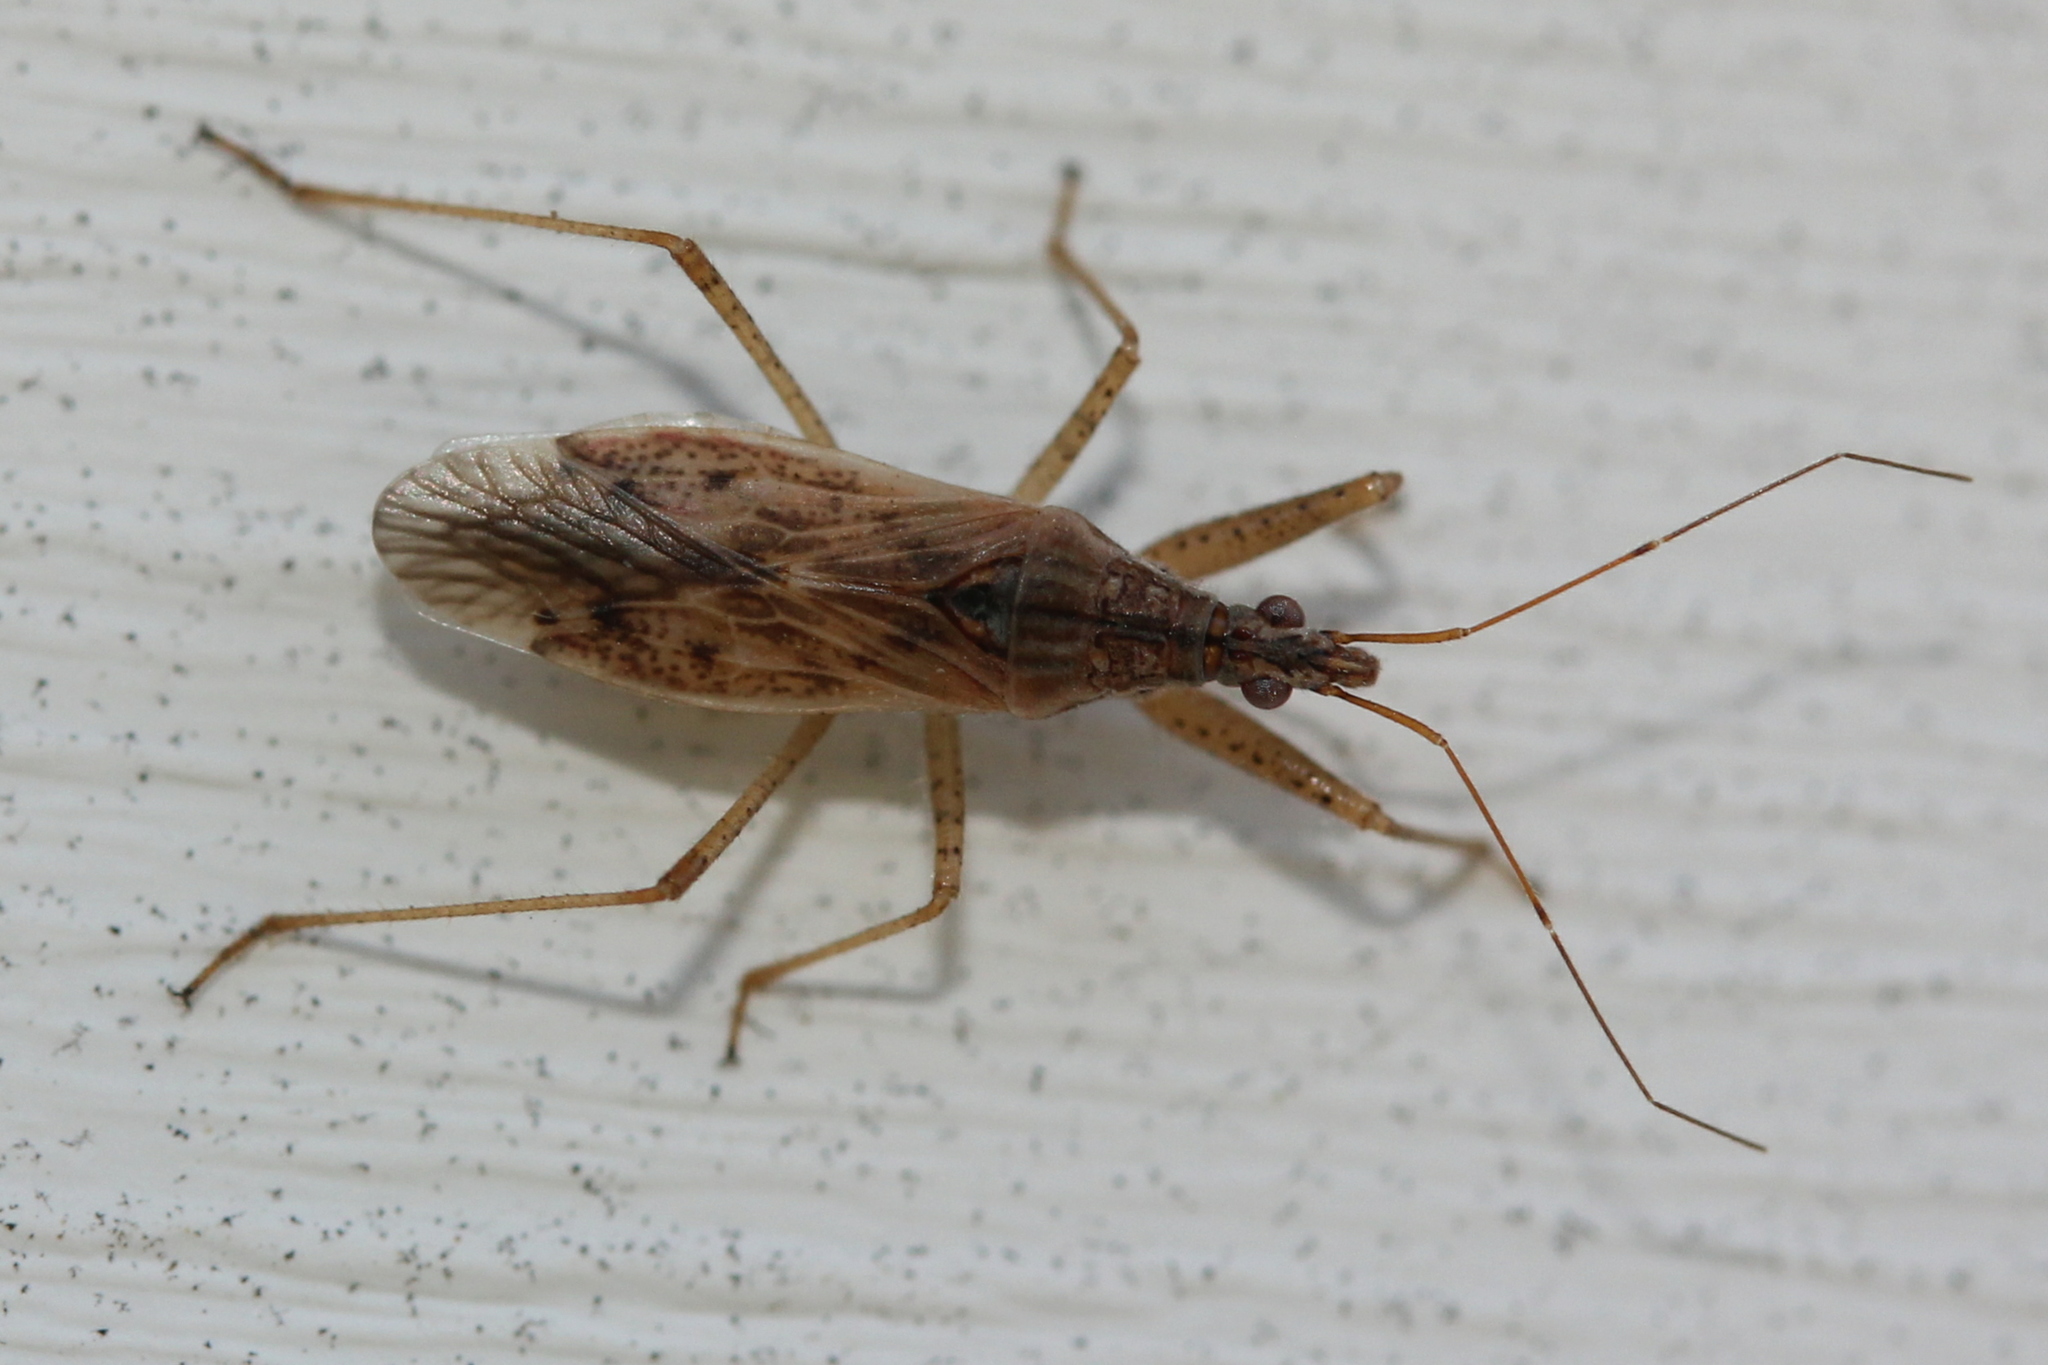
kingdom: Animalia
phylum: Arthropoda
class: Insecta
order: Hemiptera
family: Nabidae
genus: Nabis
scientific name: Nabis roseipennis
